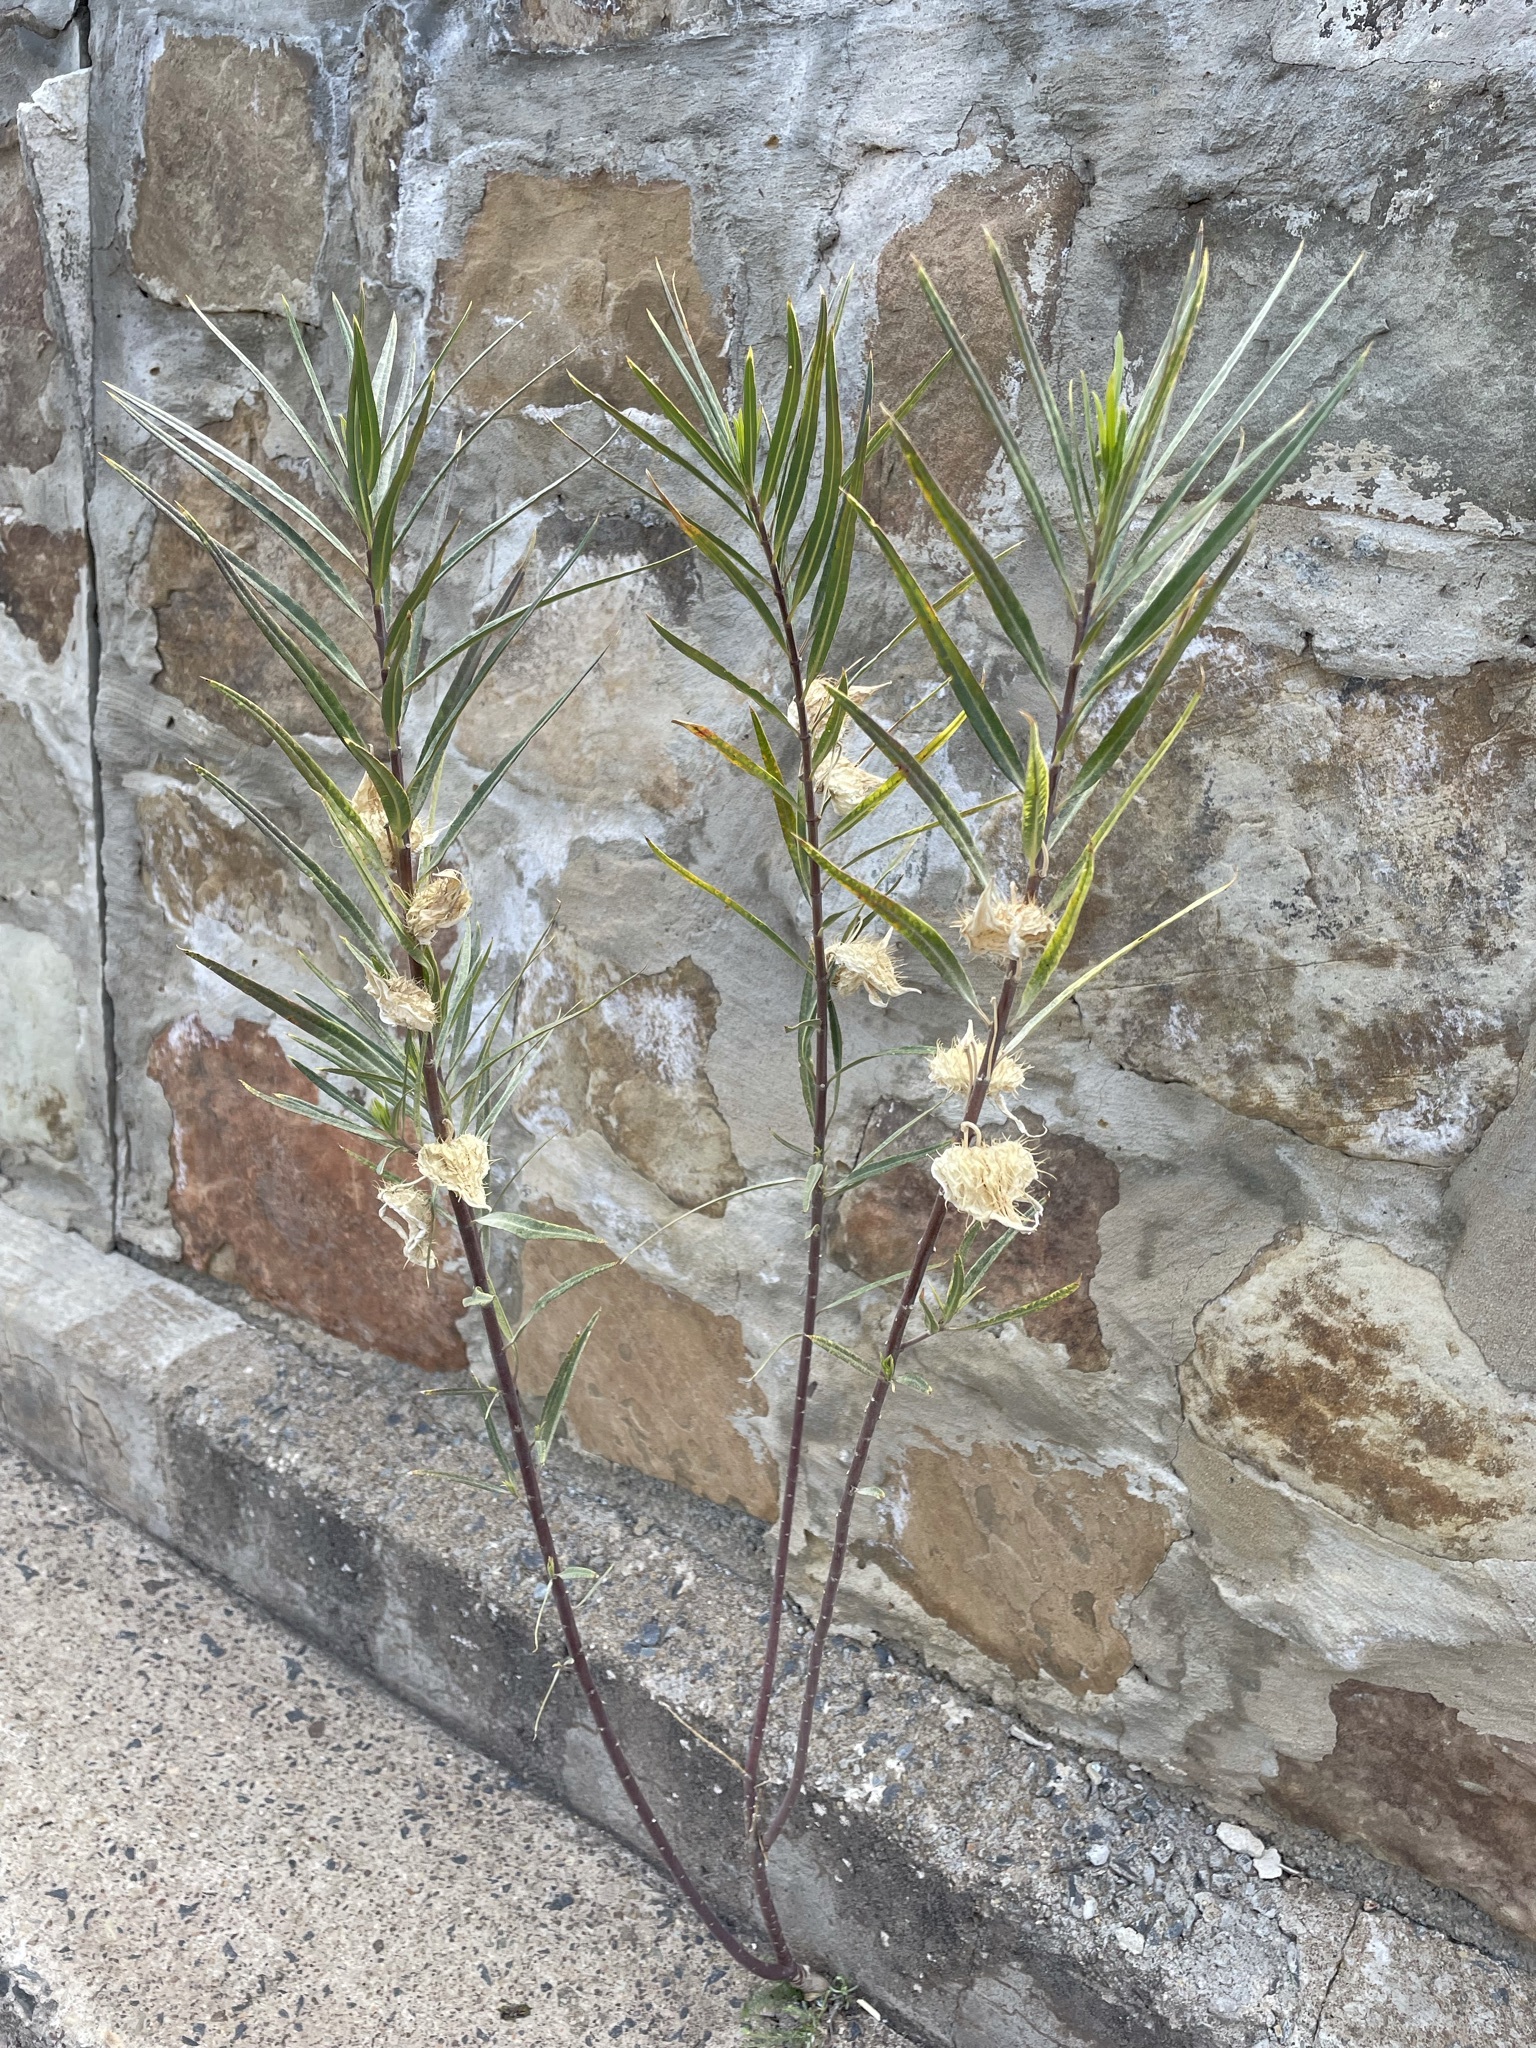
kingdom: Plantae
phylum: Tracheophyta
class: Magnoliopsida
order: Gentianales
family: Apocynaceae
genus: Gomphocarpus
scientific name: Gomphocarpus fruticosus
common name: Milkweed
